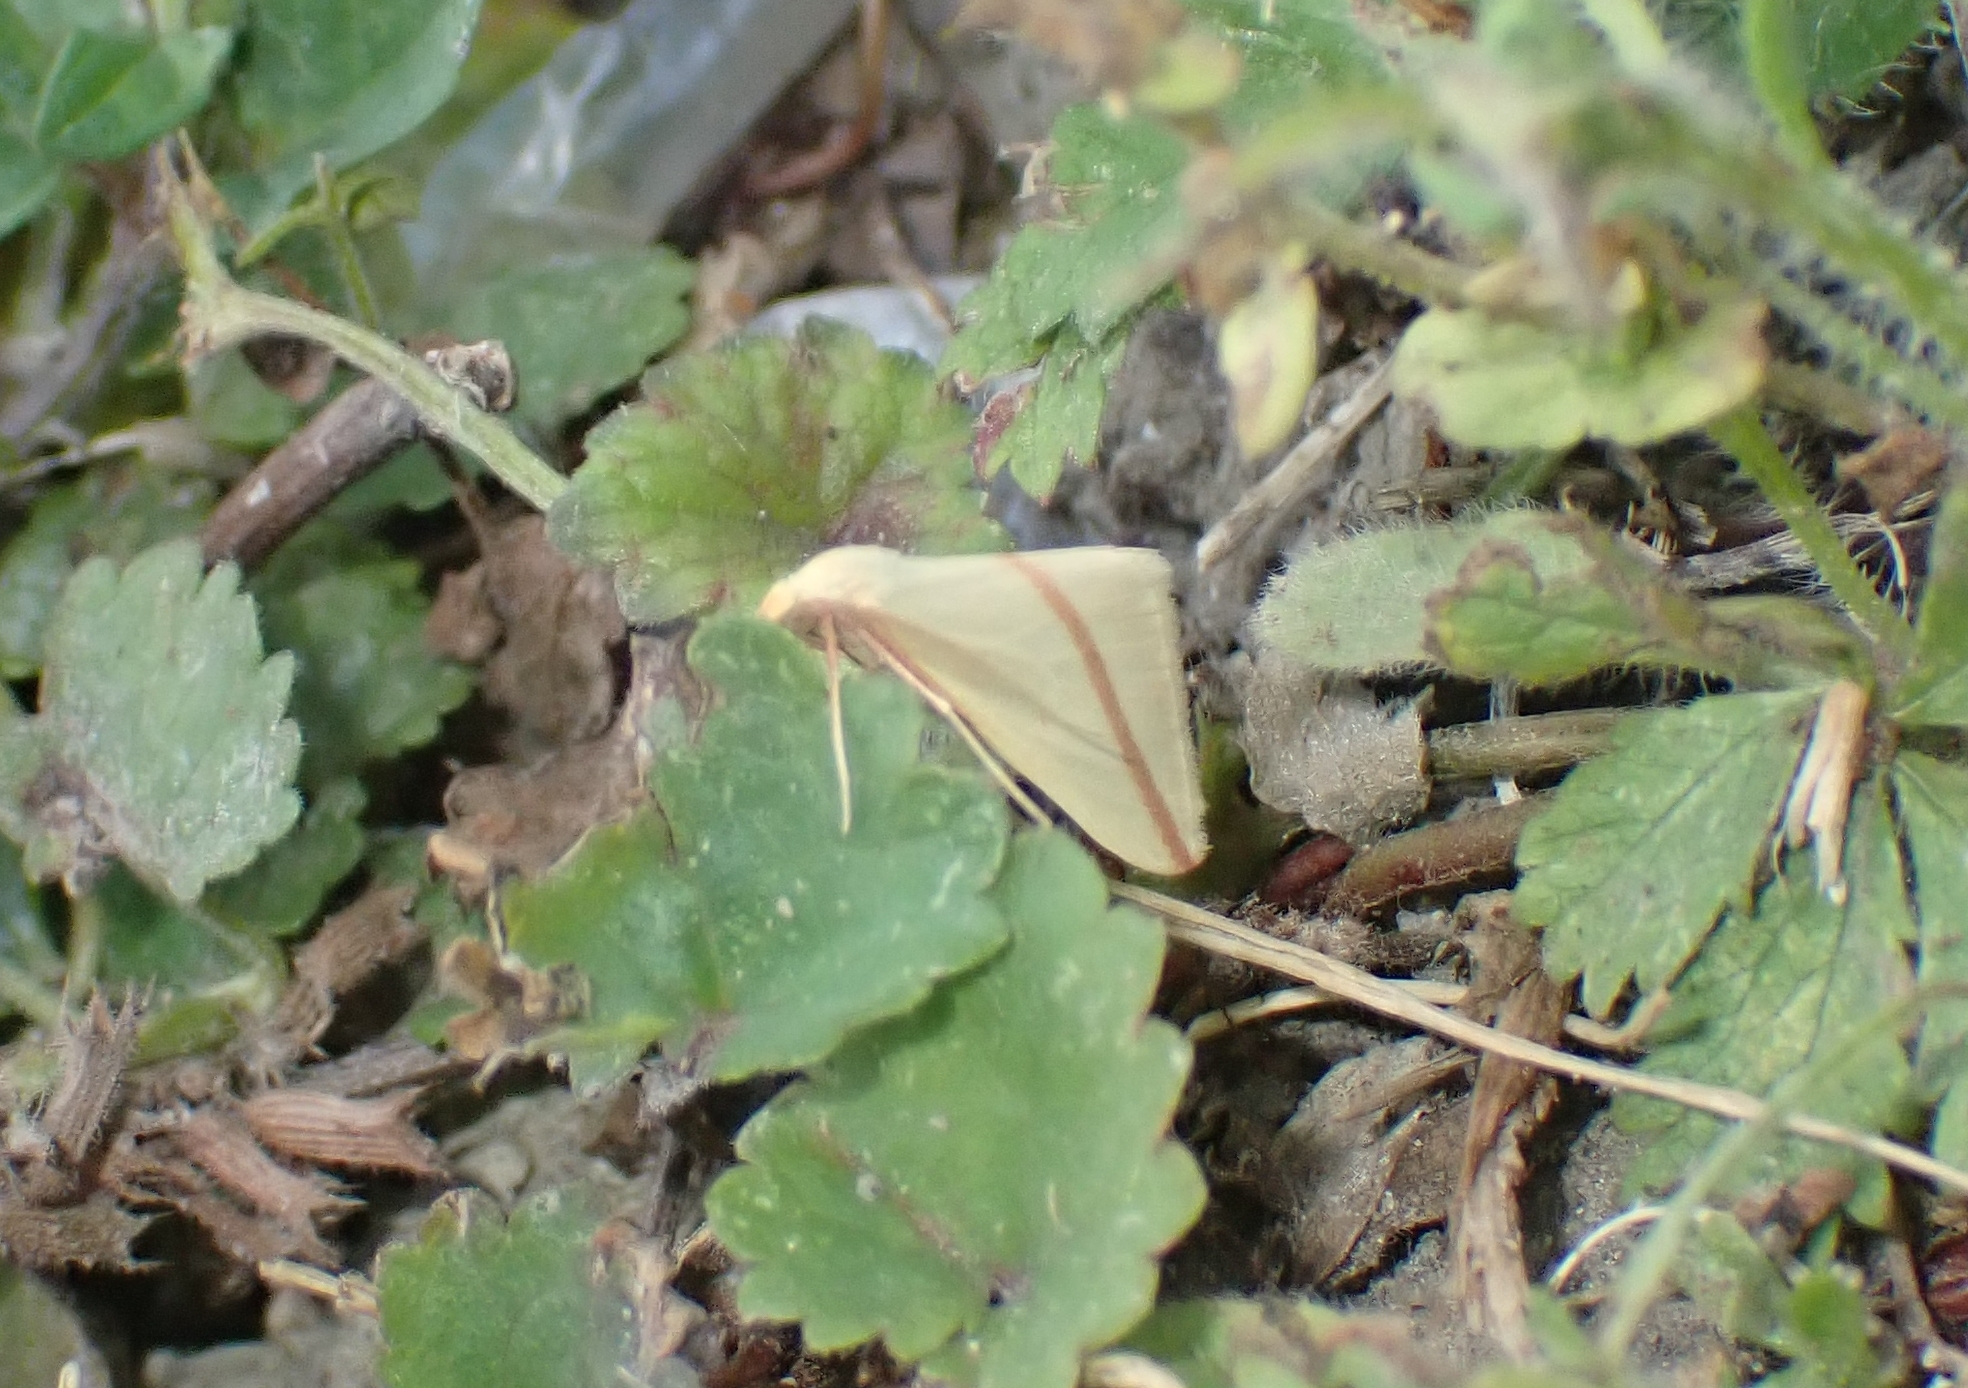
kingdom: Animalia
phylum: Arthropoda
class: Insecta
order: Lepidoptera
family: Geometridae
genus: Rhodometra
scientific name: Rhodometra sacraria
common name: Vestal
